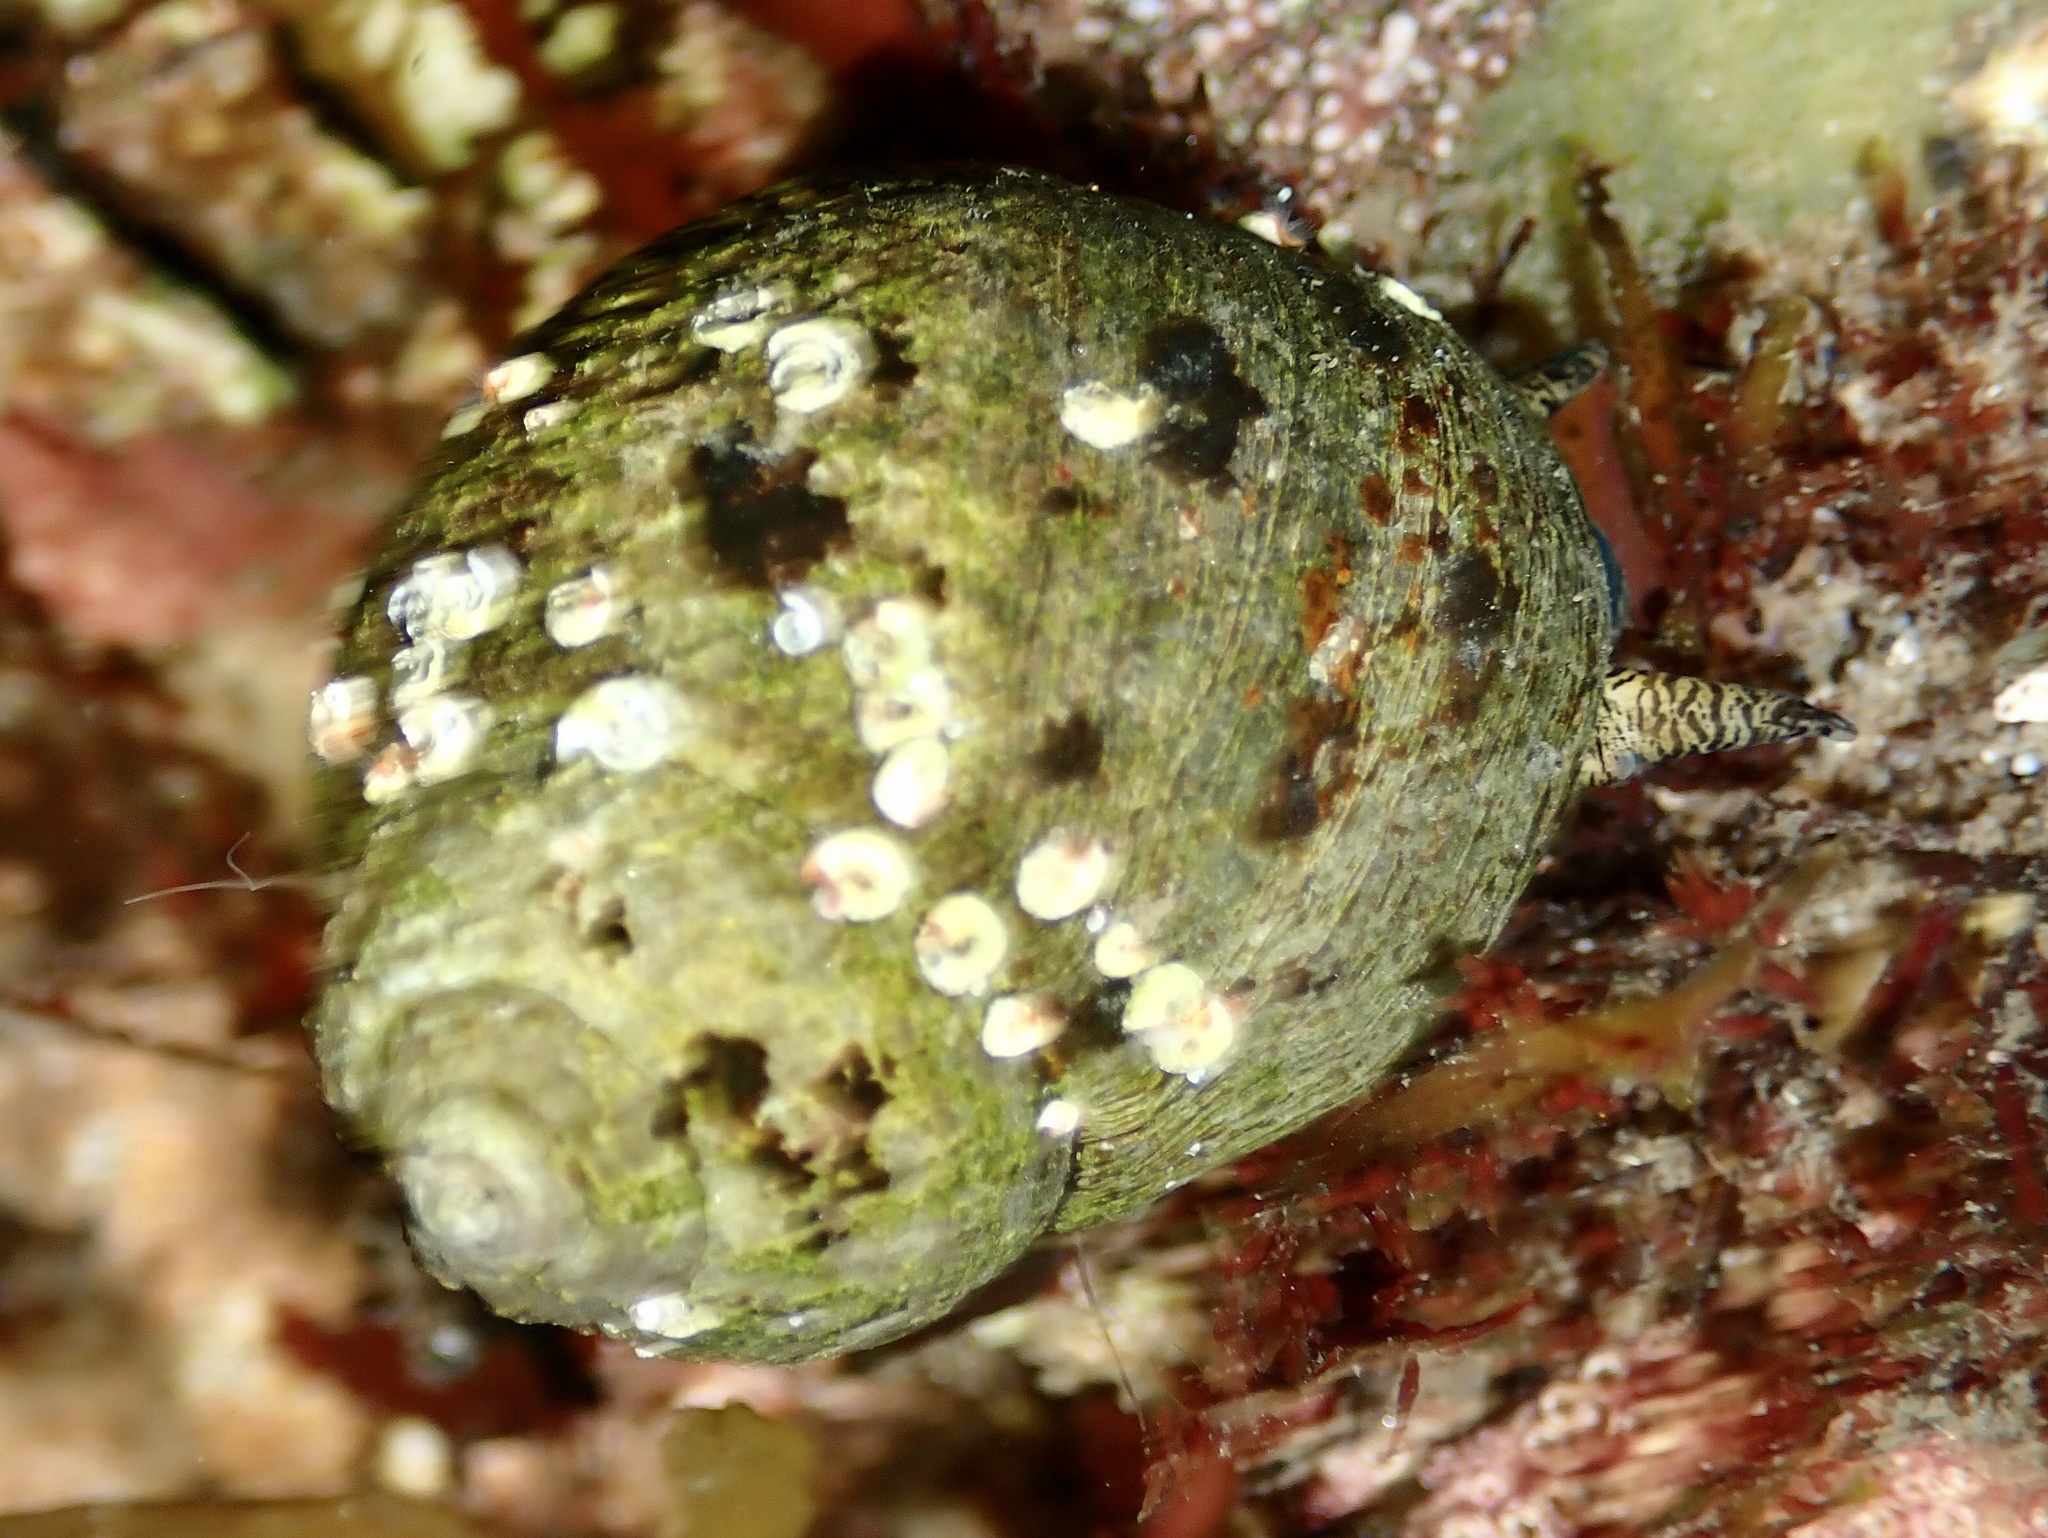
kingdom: Animalia
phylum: Mollusca
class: Gastropoda
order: Littorinimorpha
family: Littorinidae
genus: Littorina
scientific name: Littorina littorea
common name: Common periwinkle
